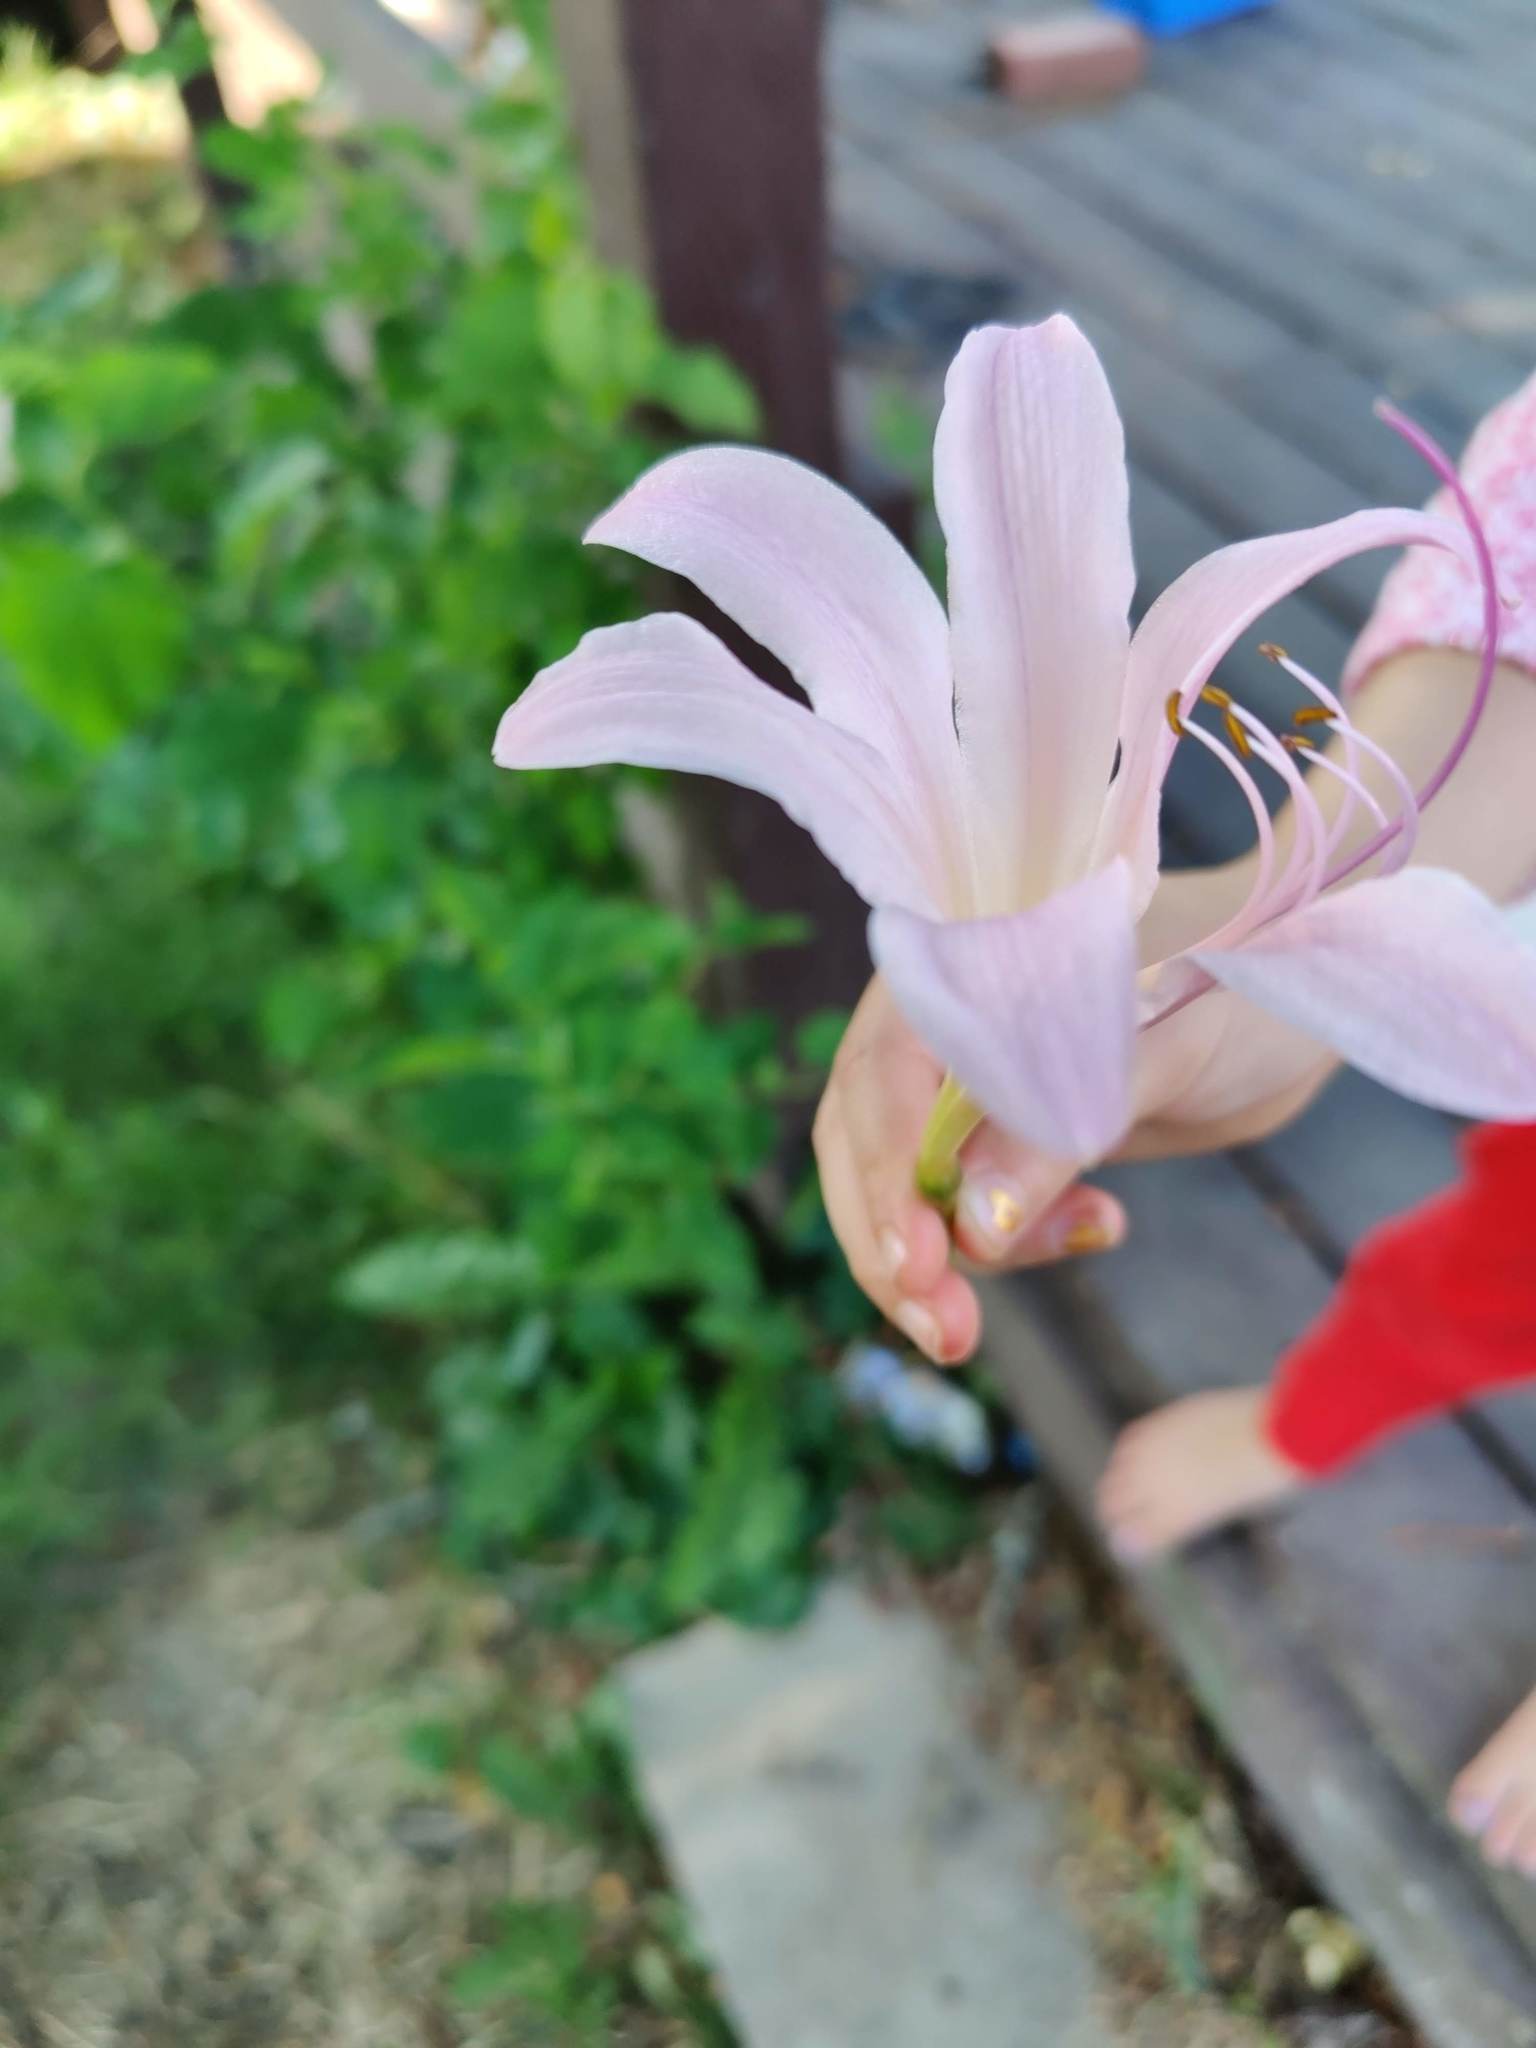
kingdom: Plantae
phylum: Tracheophyta
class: Liliopsida
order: Asparagales
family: Amaryllidaceae
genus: Lycoris
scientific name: Lycoris squamigera
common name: Magic-lily
